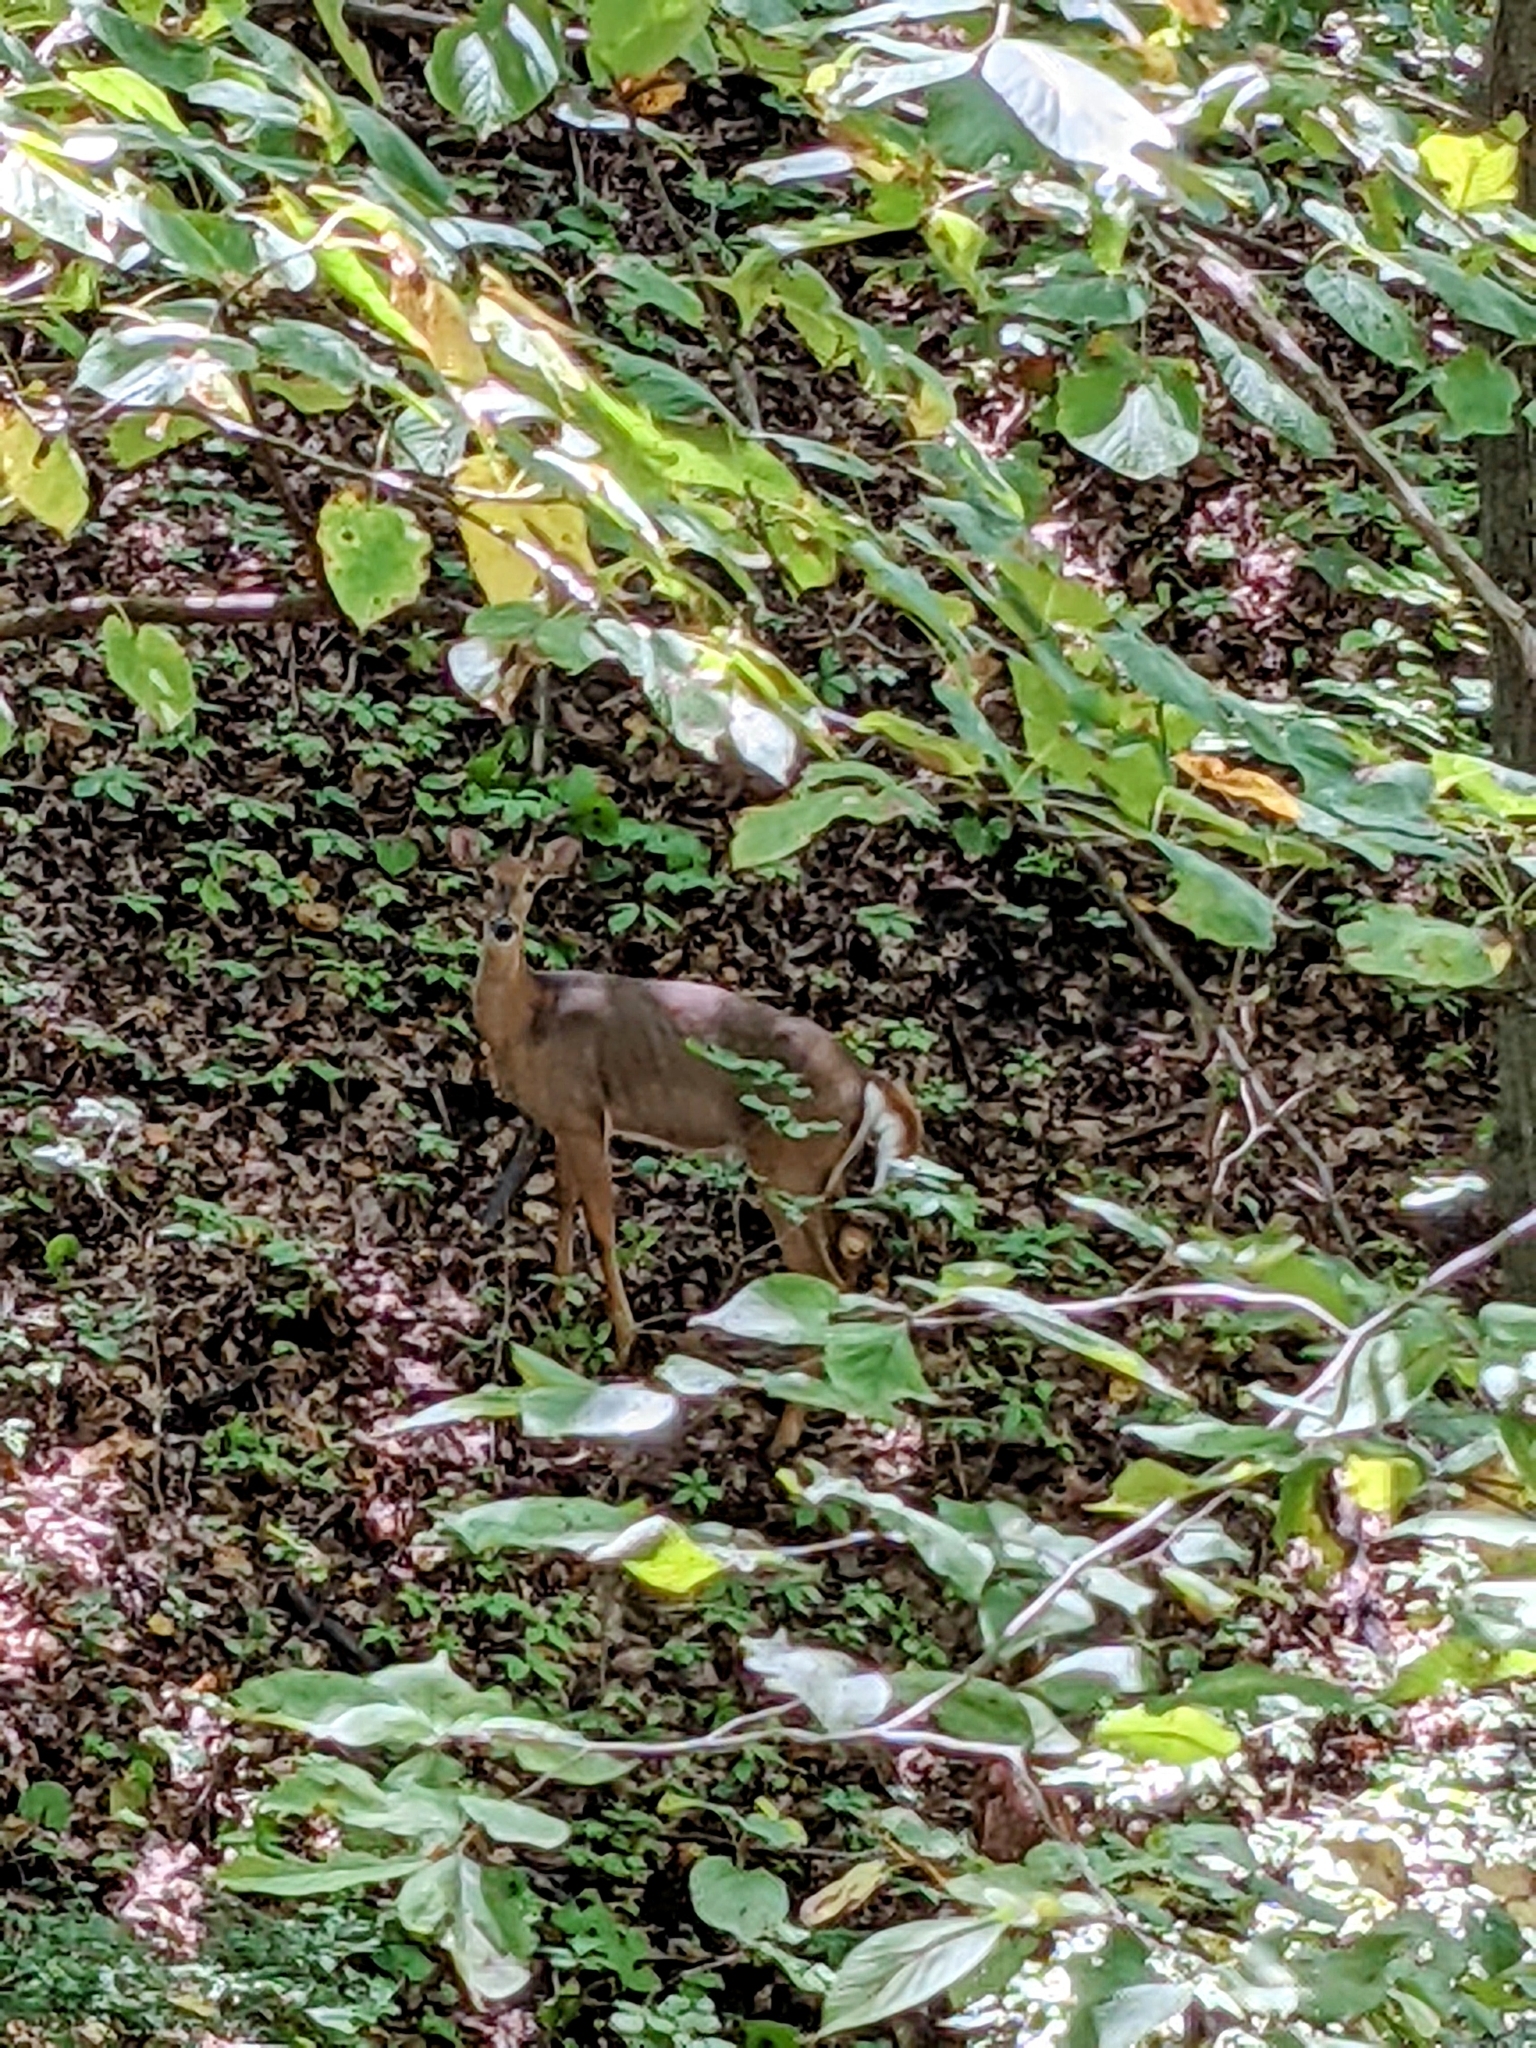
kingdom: Animalia
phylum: Chordata
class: Mammalia
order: Artiodactyla
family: Cervidae
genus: Odocoileus
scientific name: Odocoileus virginianus
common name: White-tailed deer
